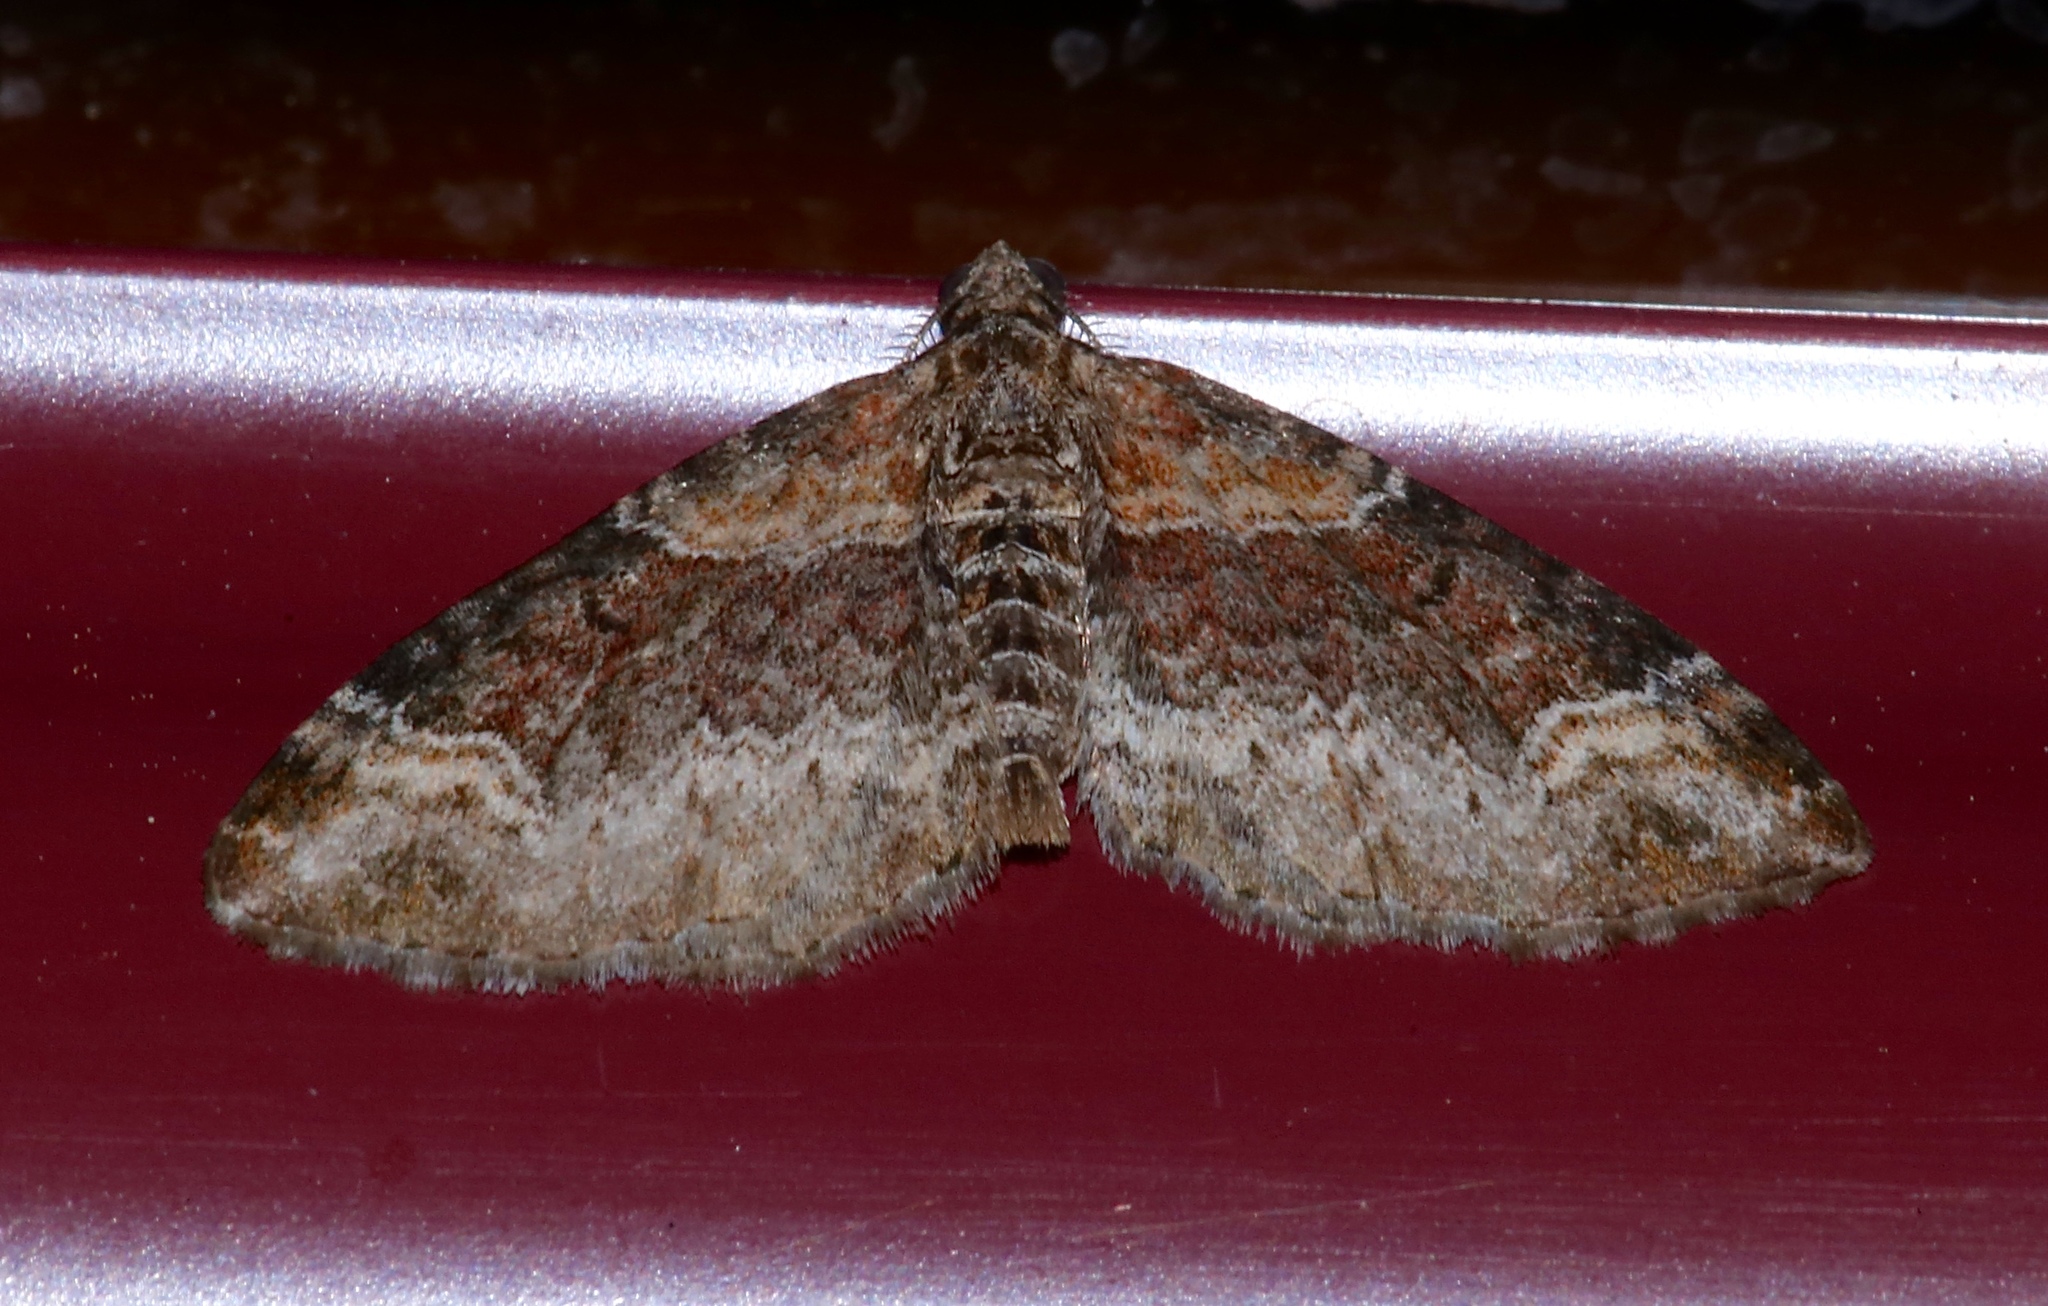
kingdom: Animalia
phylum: Arthropoda
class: Insecta
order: Lepidoptera
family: Geometridae
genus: Xanthorhoe
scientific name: Xanthorhoe ferrugata
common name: Dark-barred twin-spot carpet
